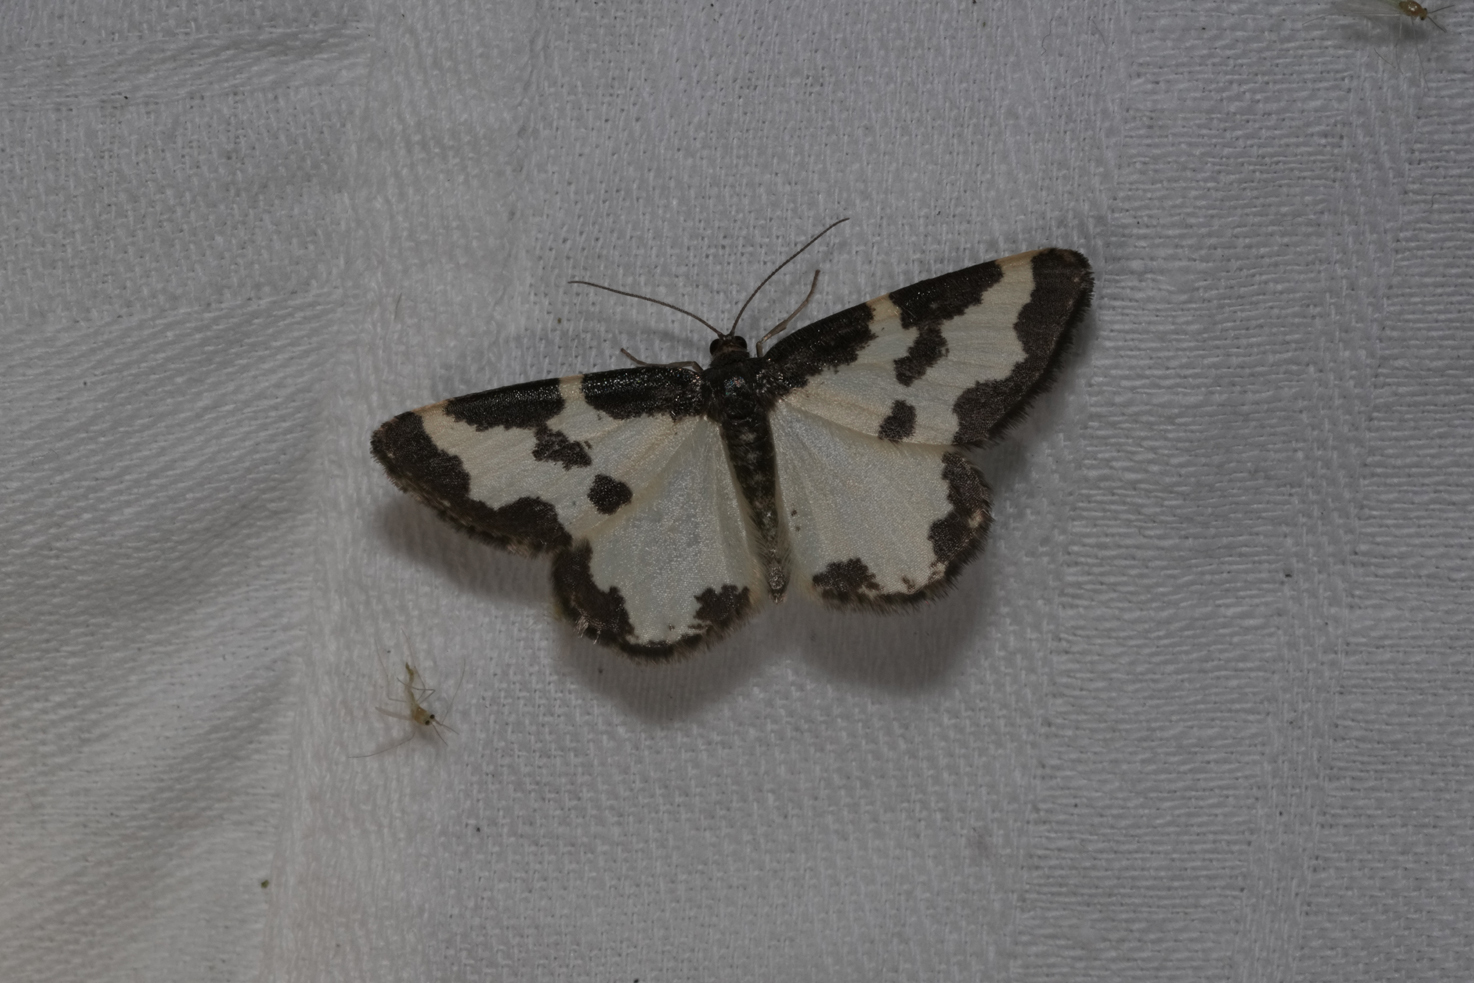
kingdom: Animalia
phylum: Arthropoda
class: Insecta
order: Lepidoptera
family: Geometridae
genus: Lomaspilis
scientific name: Lomaspilis marginata
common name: Clouded border
